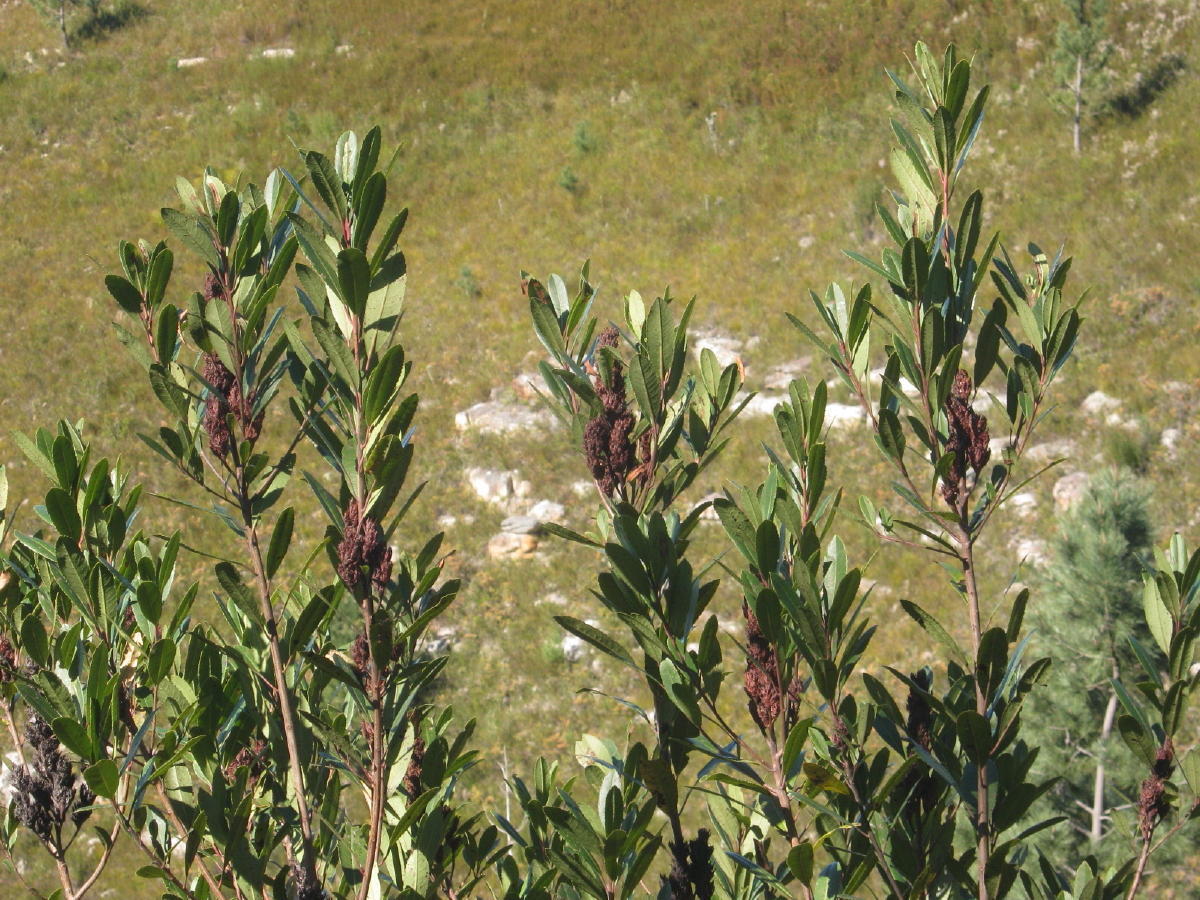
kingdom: Plantae
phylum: Tracheophyta
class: Magnoliopsida
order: Sapindales
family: Anacardiaceae
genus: Laurophyllus
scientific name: Laurophyllus capensis
